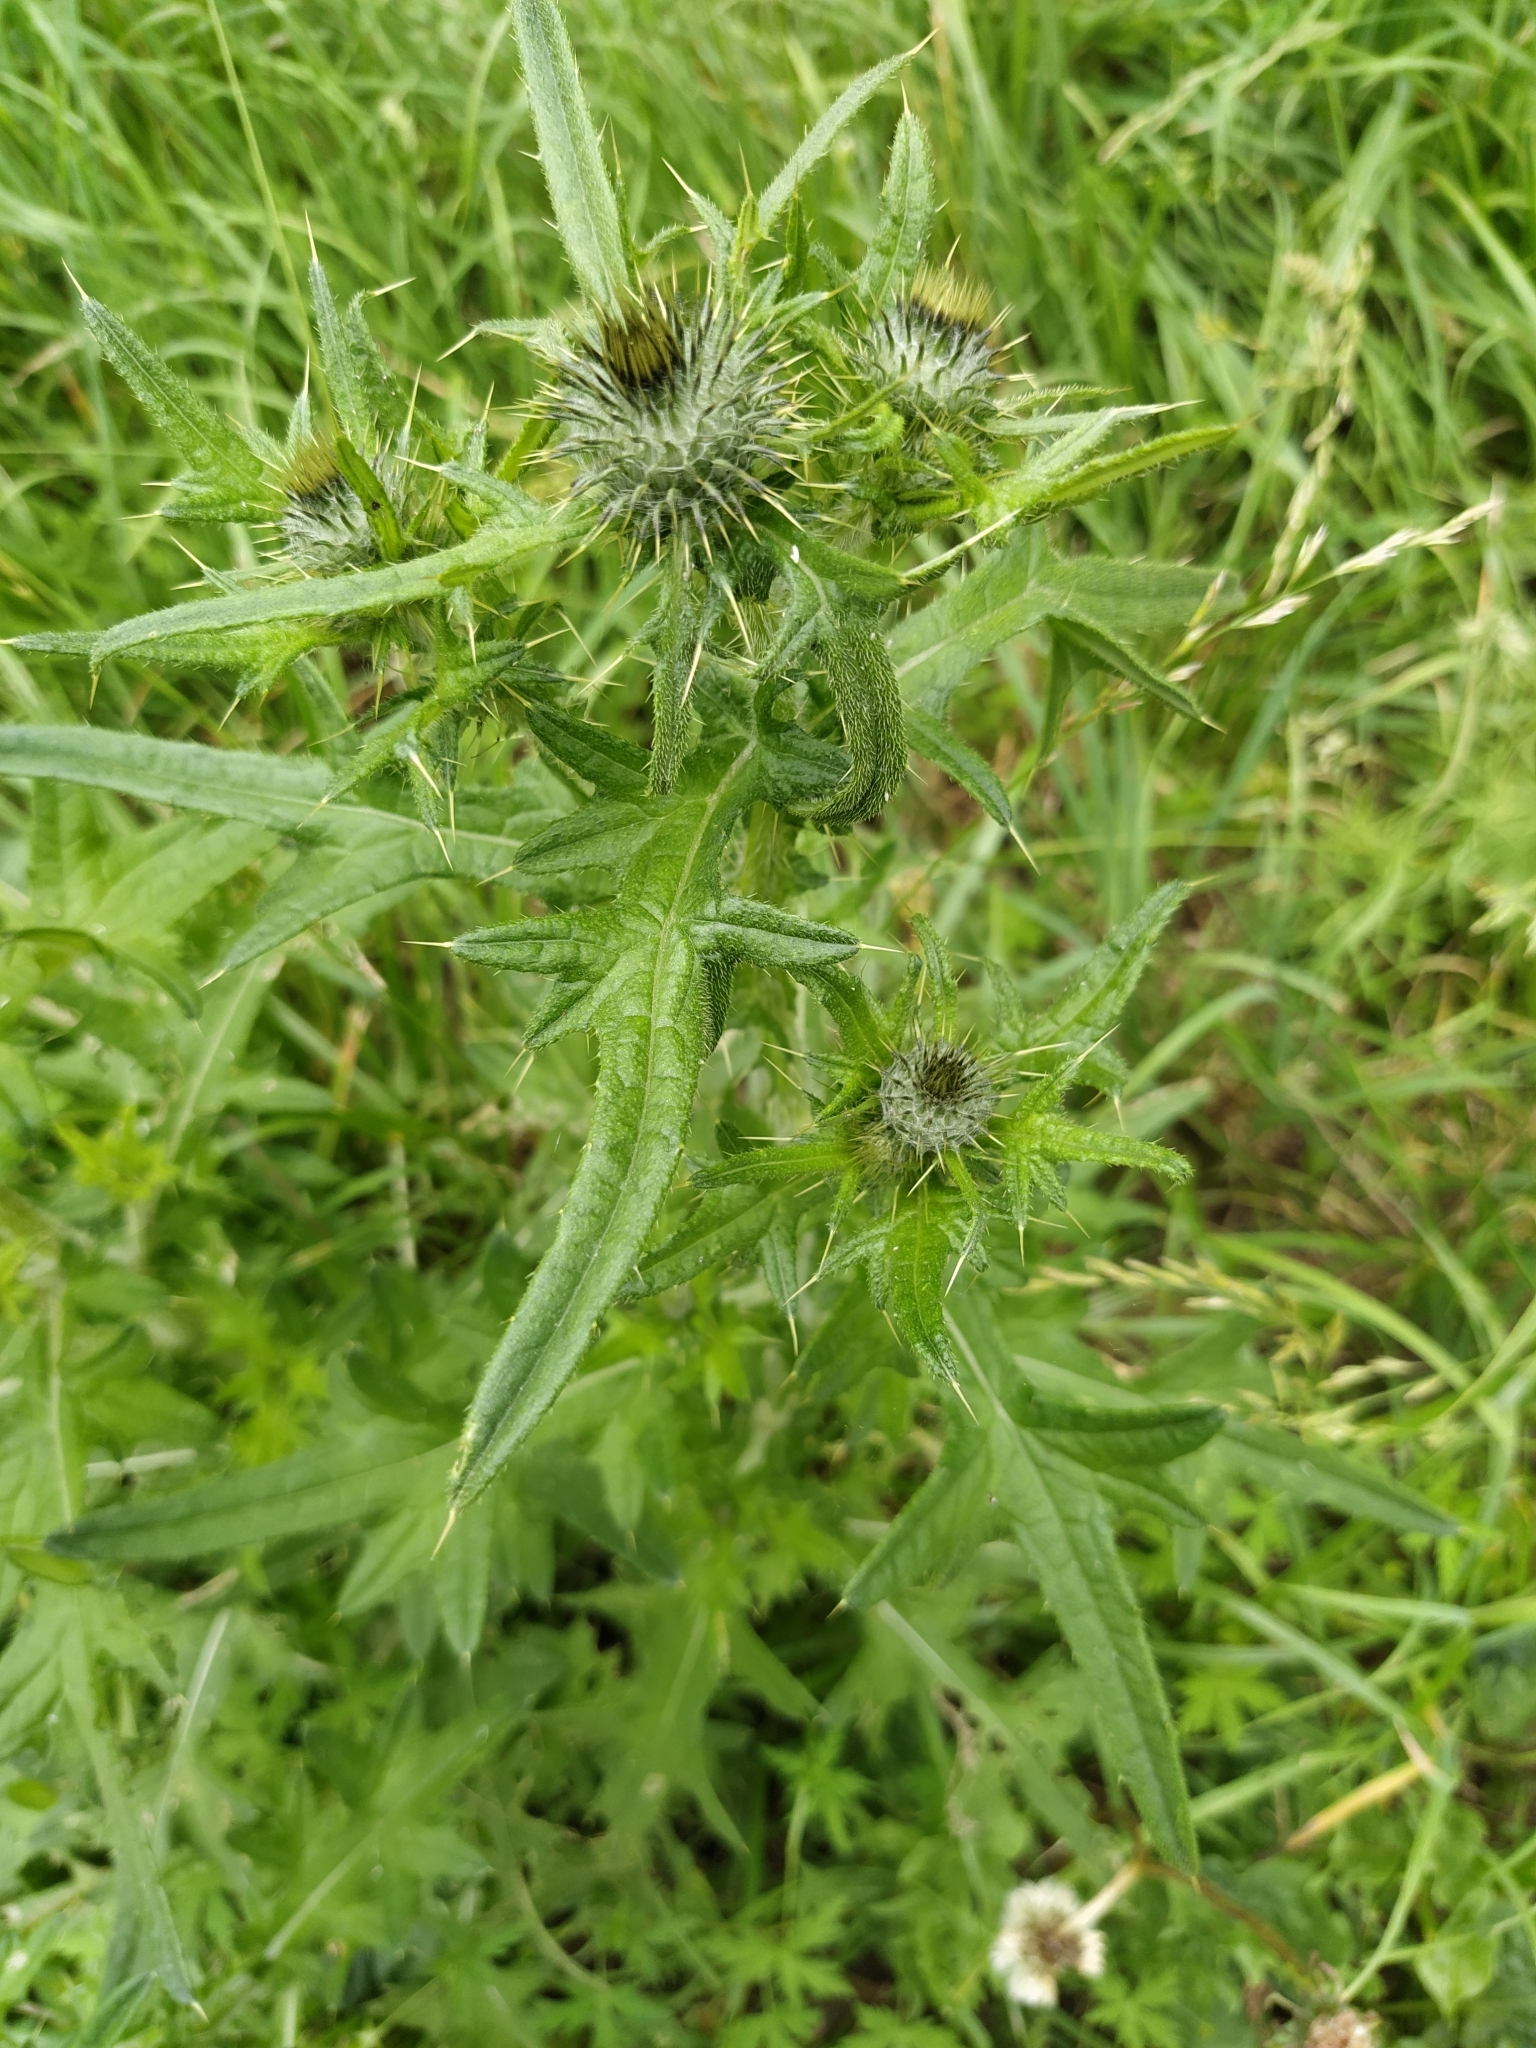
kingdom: Plantae
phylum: Tracheophyta
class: Magnoliopsida
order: Asterales
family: Asteraceae
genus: Cirsium
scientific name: Cirsium vulgare
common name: Bull thistle
